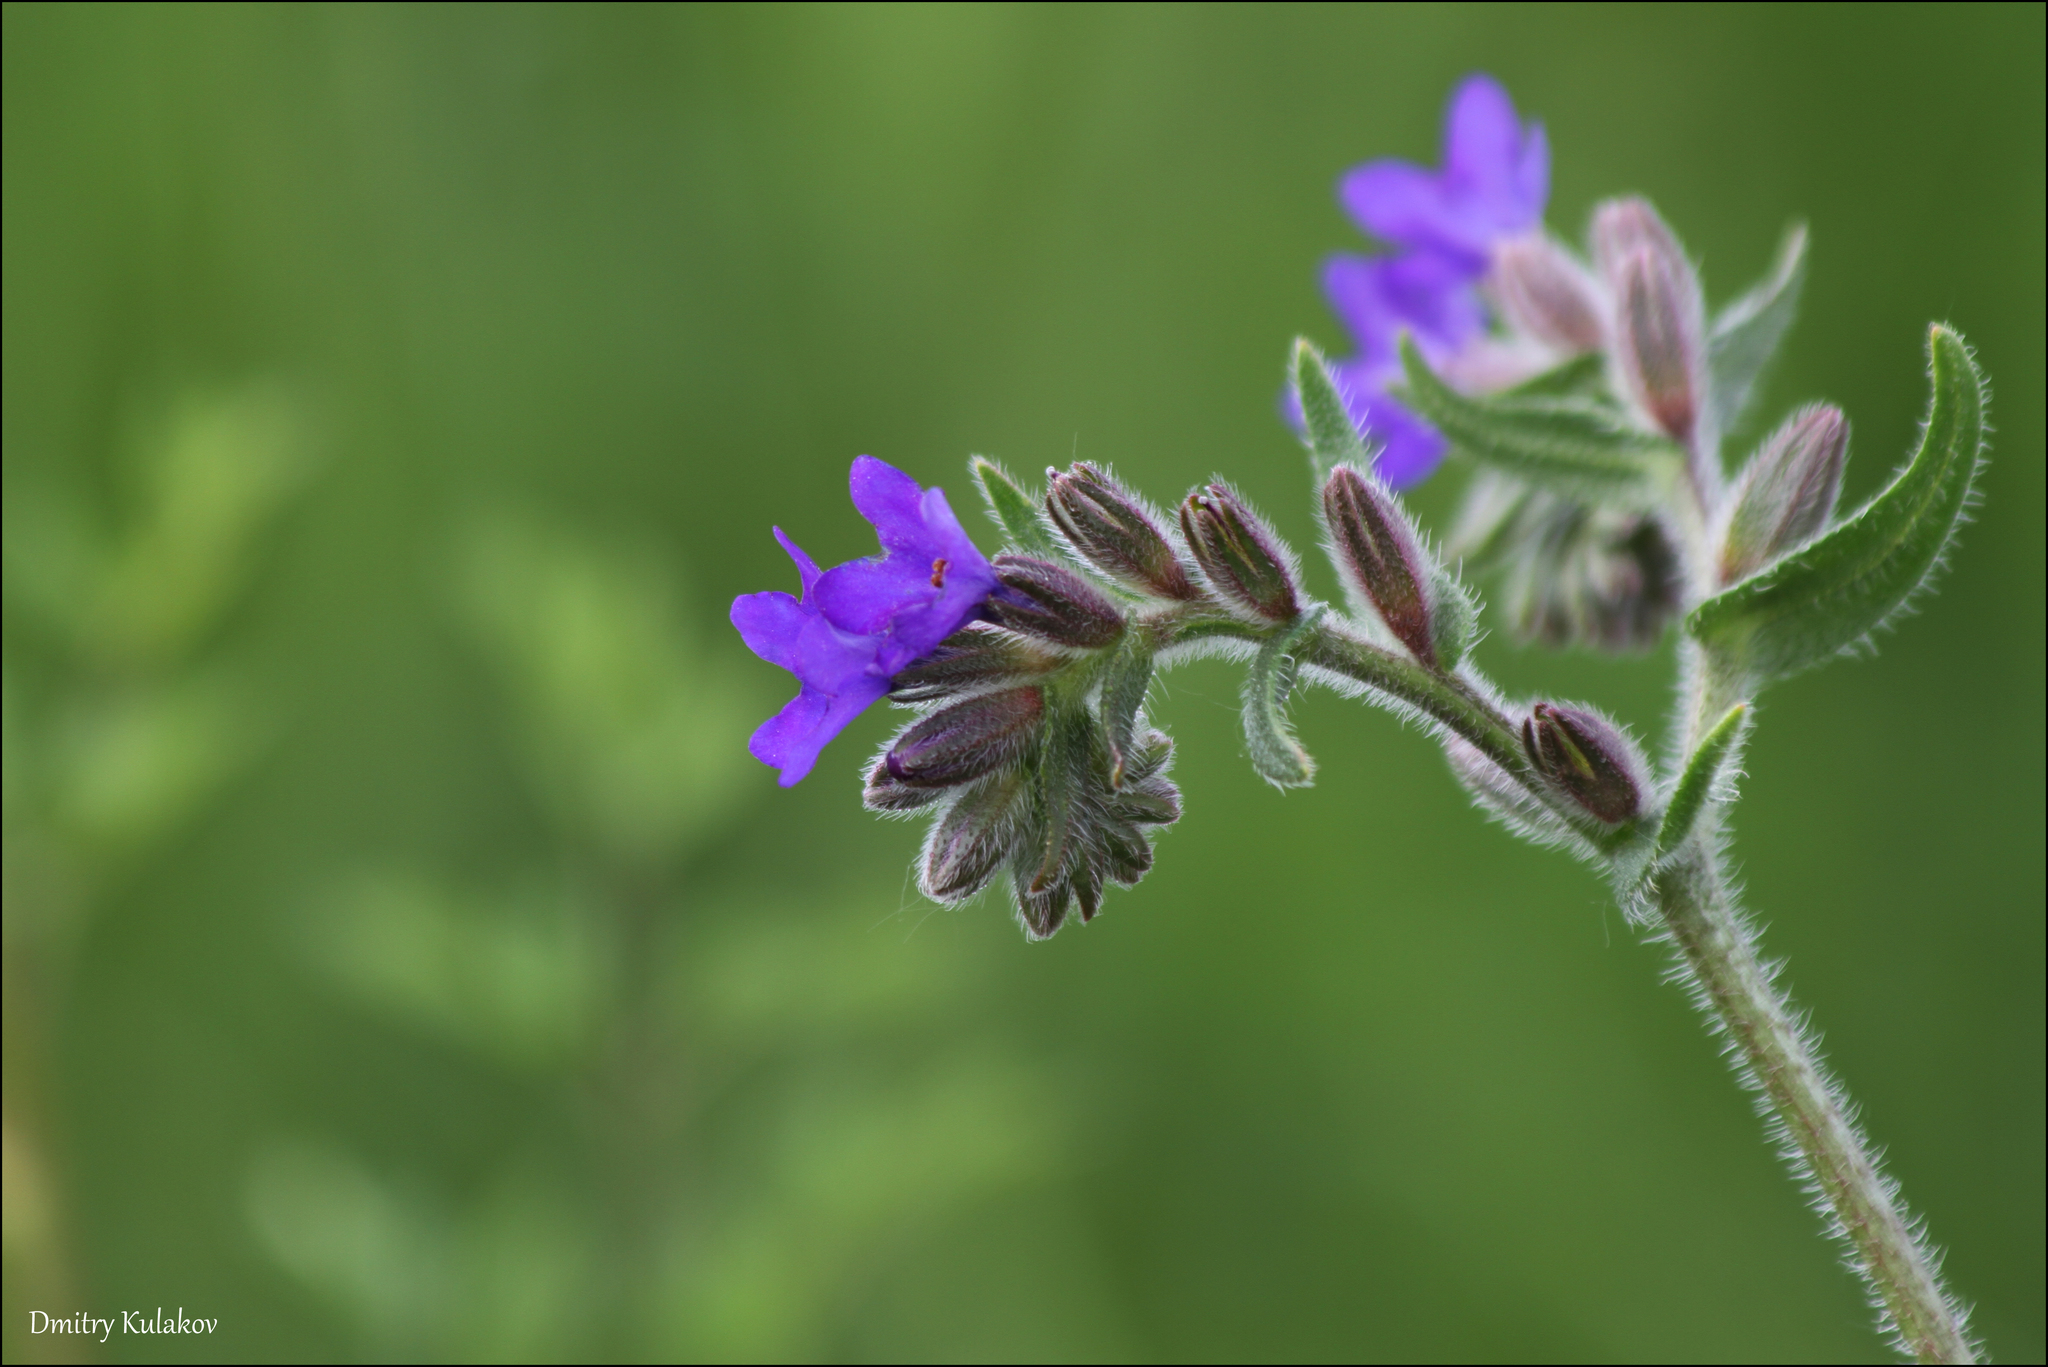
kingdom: Plantae
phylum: Tracheophyta
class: Magnoliopsida
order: Boraginales
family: Boraginaceae
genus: Anchusa
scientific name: Anchusa officinalis
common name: Alkanet
